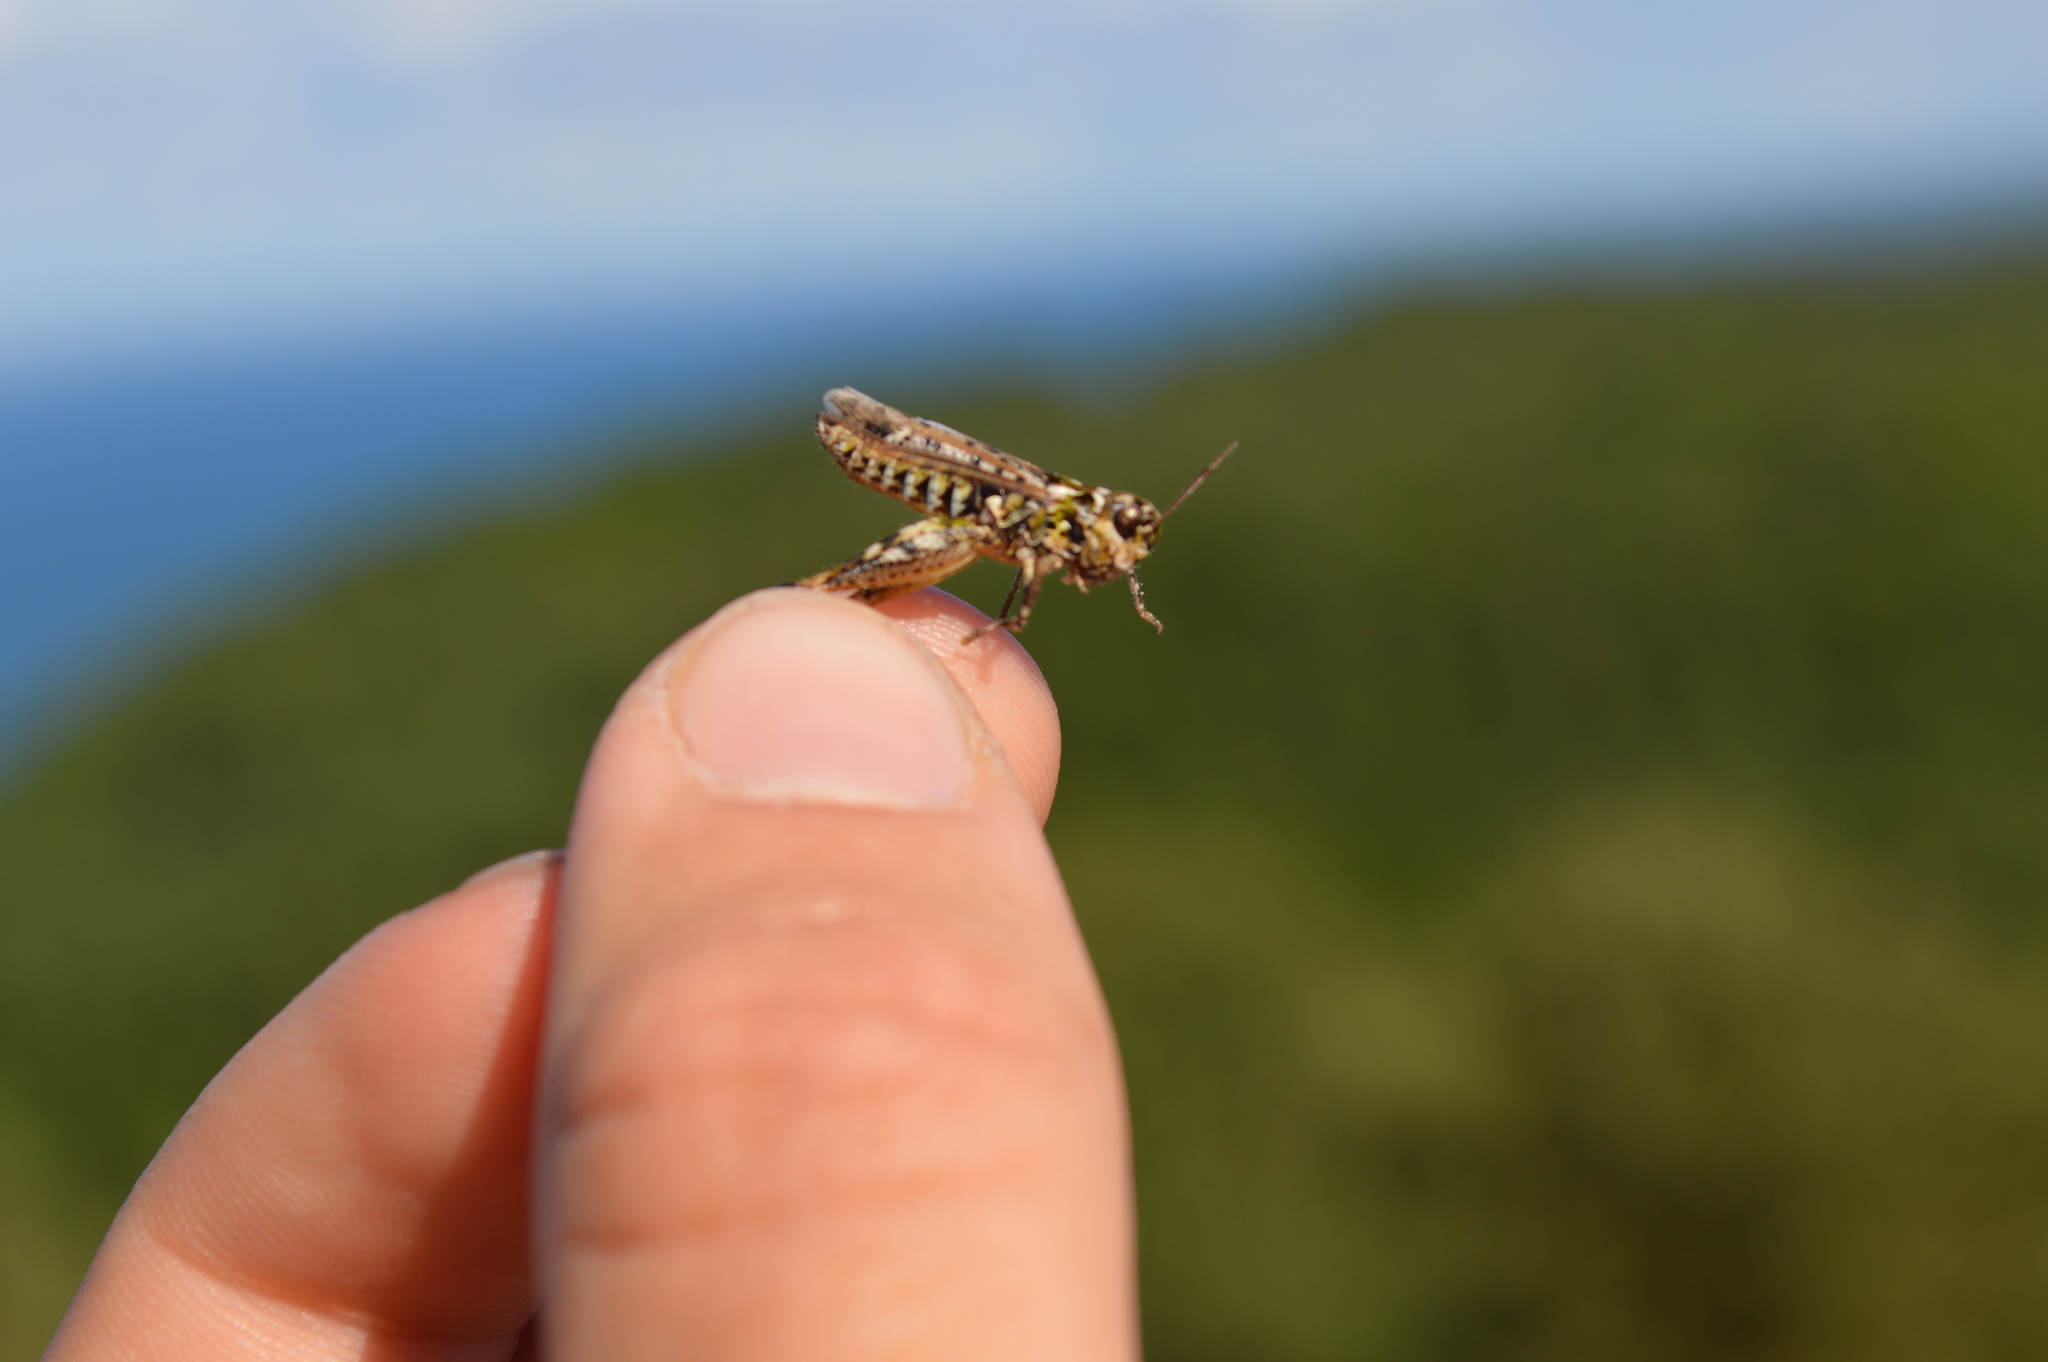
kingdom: Animalia
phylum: Arthropoda
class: Insecta
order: Orthoptera
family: Acrididae
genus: Myrmeleotettix
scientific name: Myrmeleotettix maculatus
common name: Mottled grasshopper
